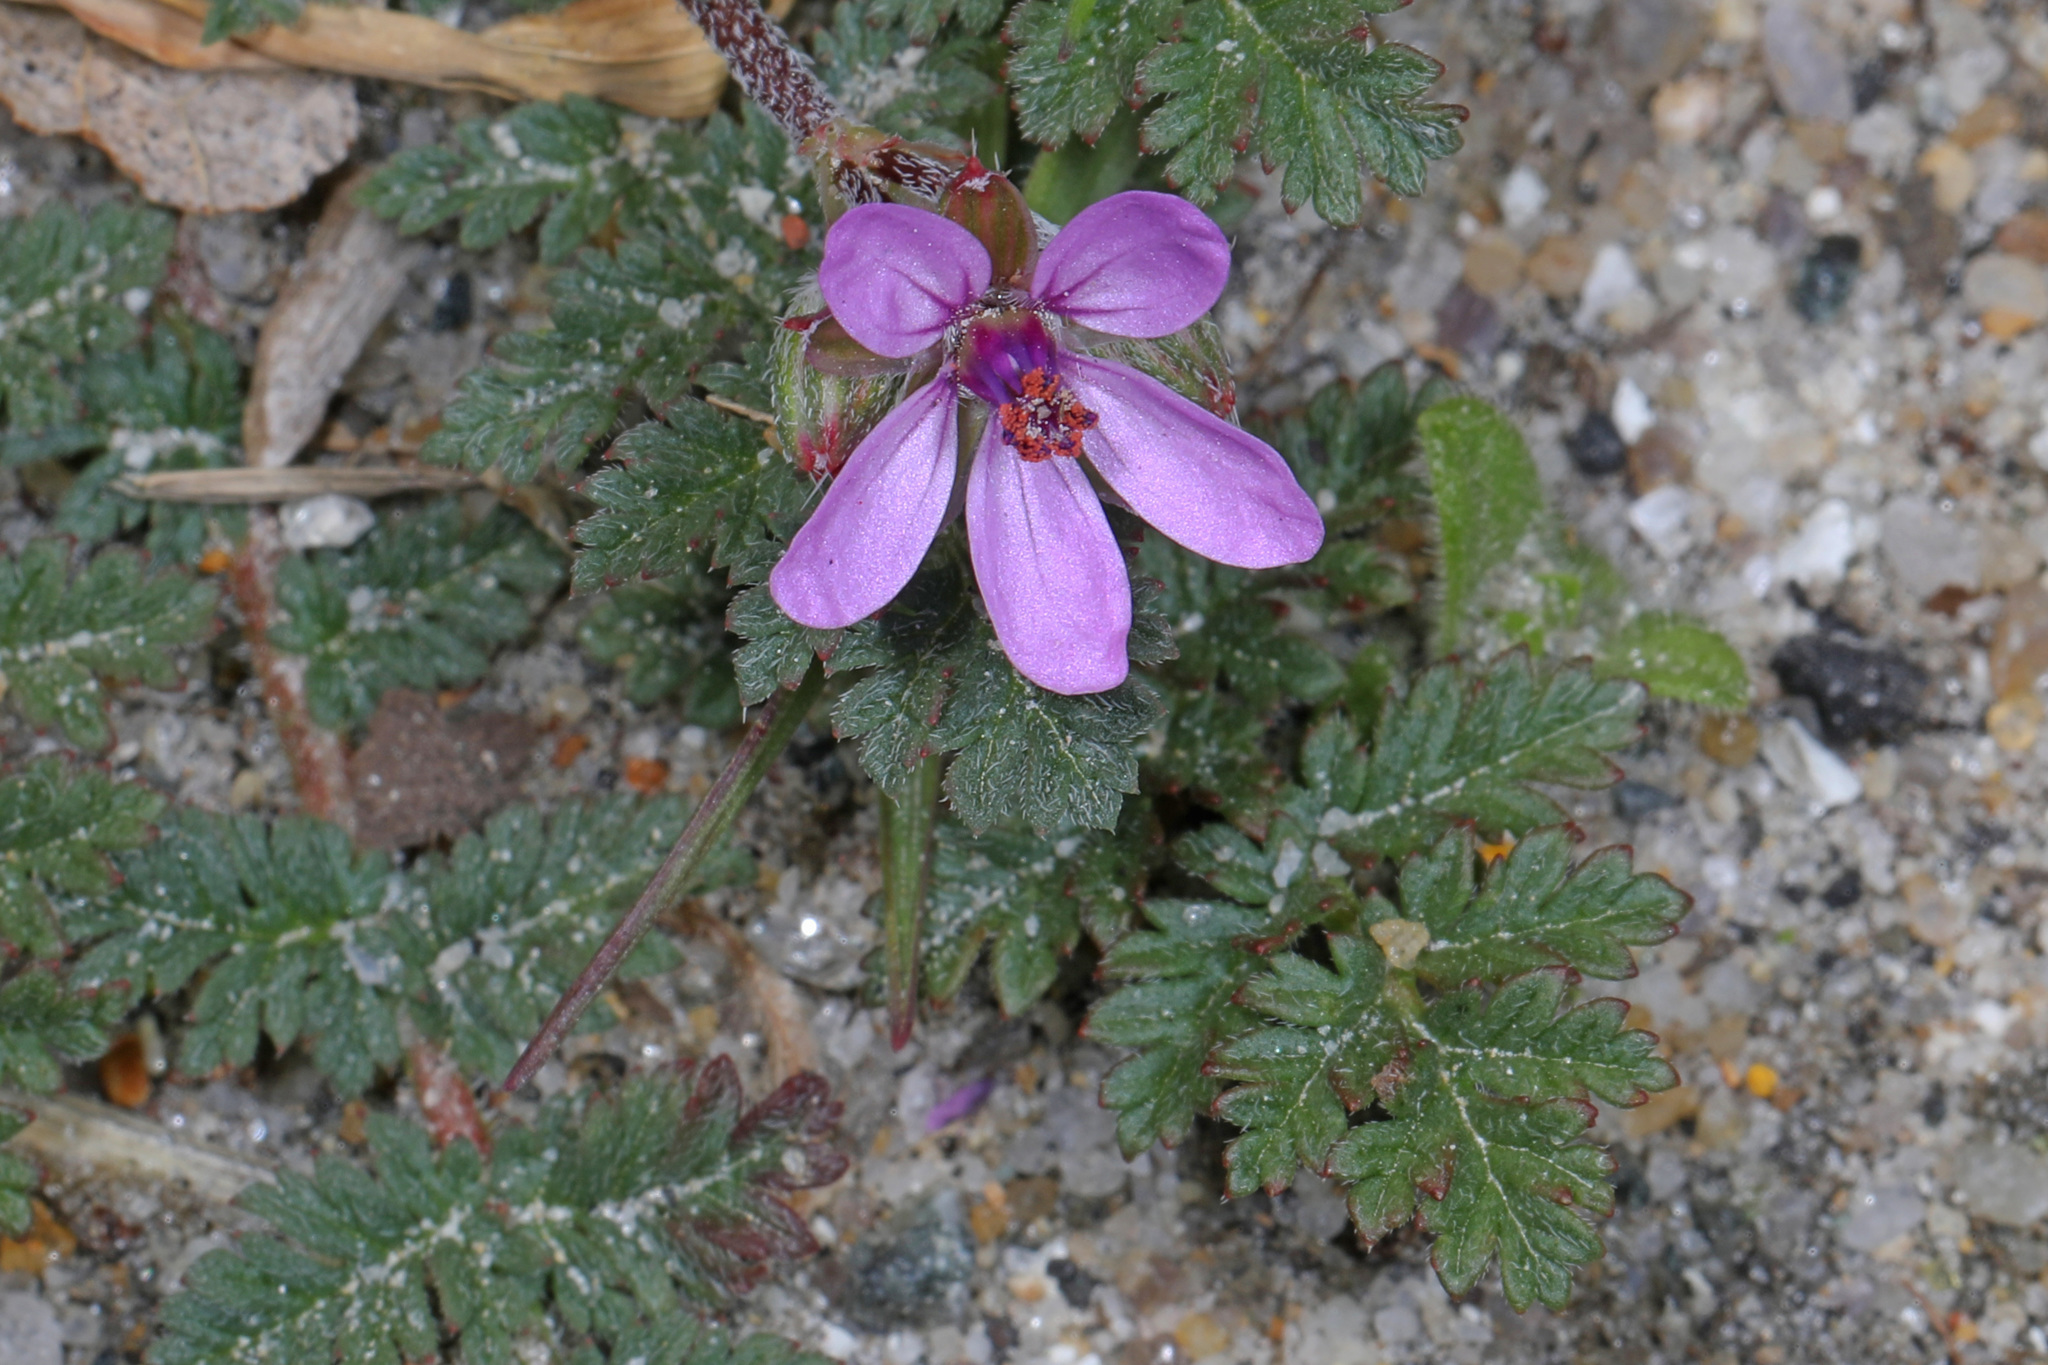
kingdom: Plantae
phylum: Tracheophyta
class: Magnoliopsida
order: Geraniales
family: Geraniaceae
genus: Erodium
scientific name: Erodium cicutarium
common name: Common stork's-bill
